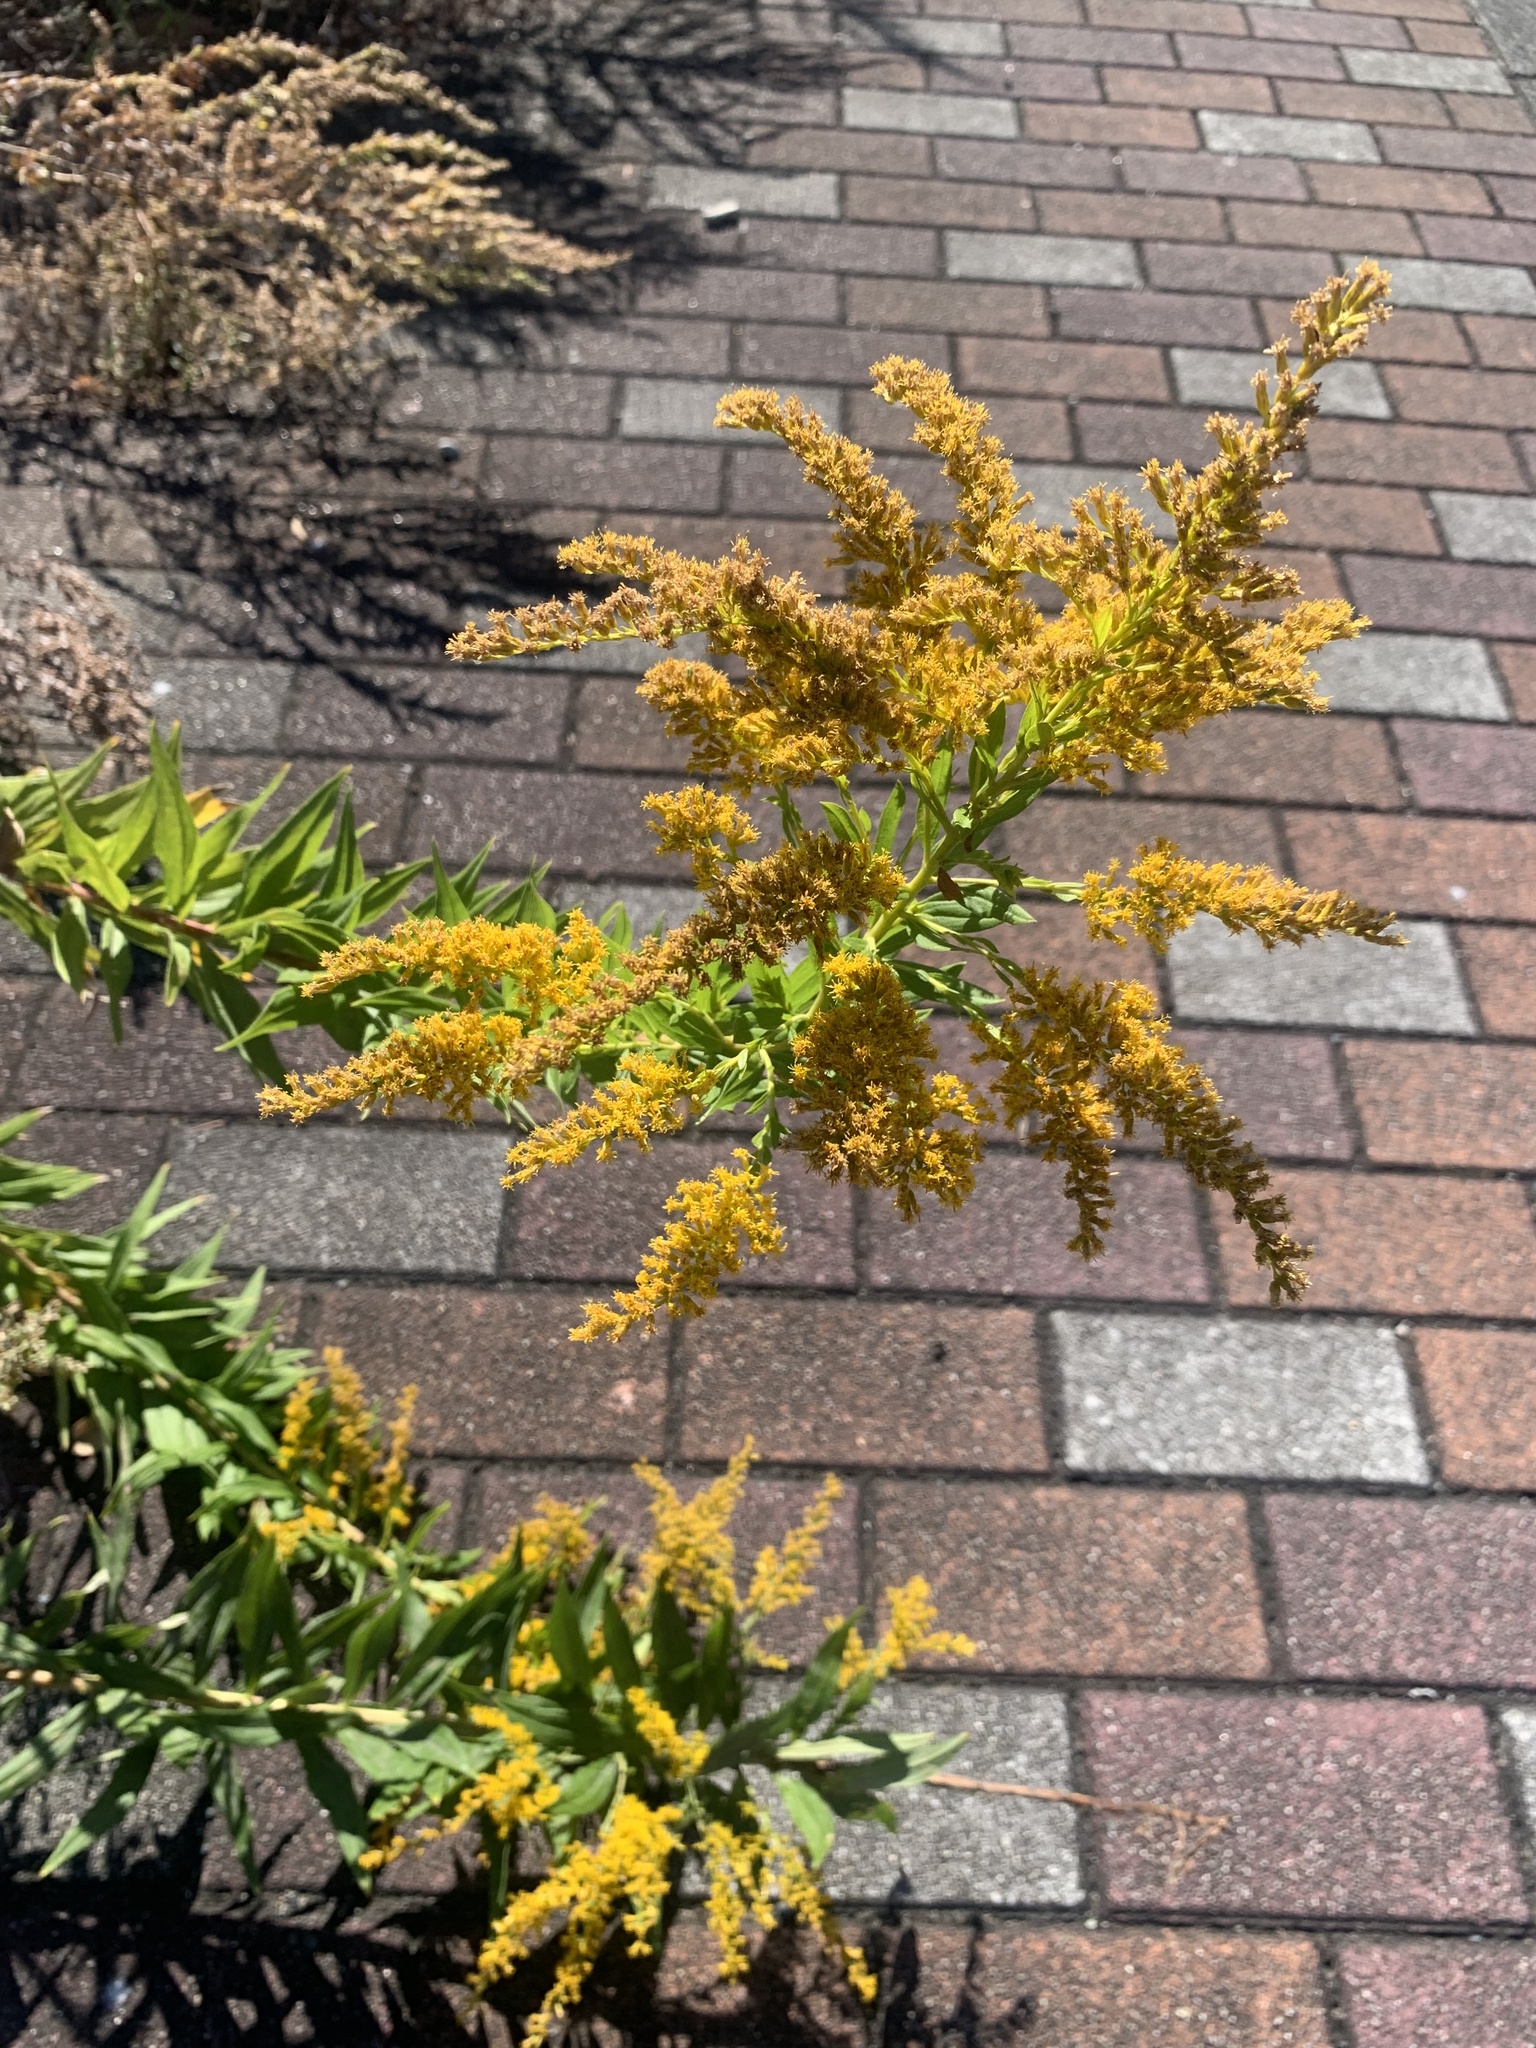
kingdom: Plantae
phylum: Tracheophyta
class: Magnoliopsida
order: Asterales
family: Asteraceae
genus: Solidago
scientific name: Solidago altissima
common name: Late goldenrod
